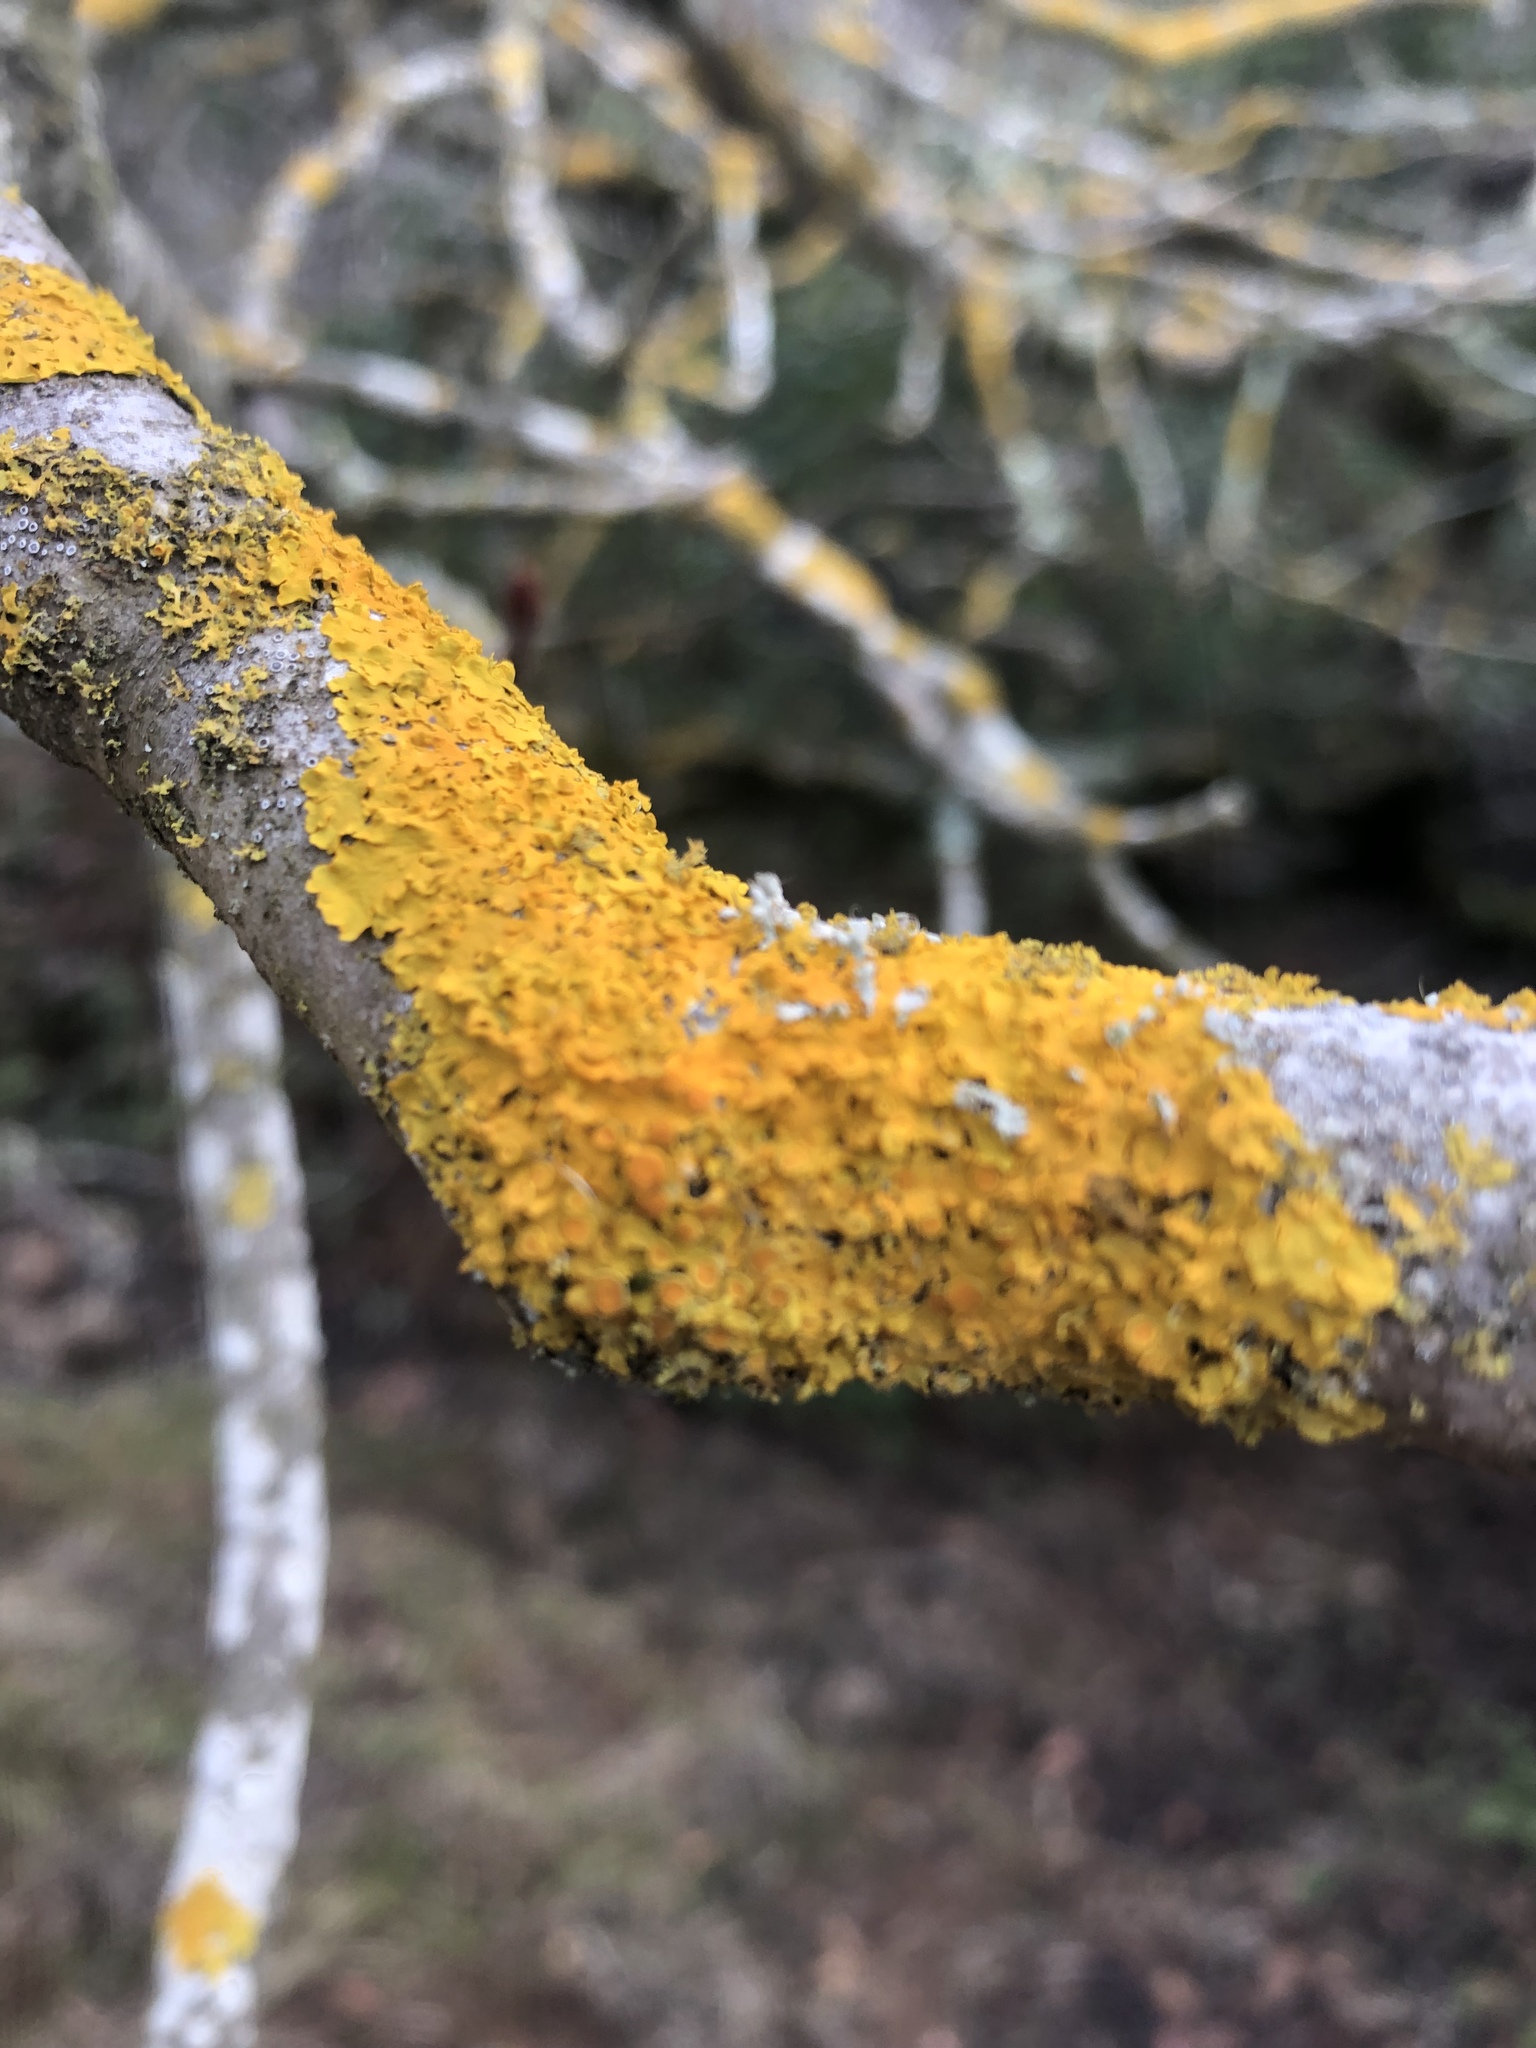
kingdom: Fungi
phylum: Ascomycota
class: Lecanoromycetes
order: Teloschistales
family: Teloschistaceae
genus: Xanthoria
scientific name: Xanthoria parietina
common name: Common orange lichen
